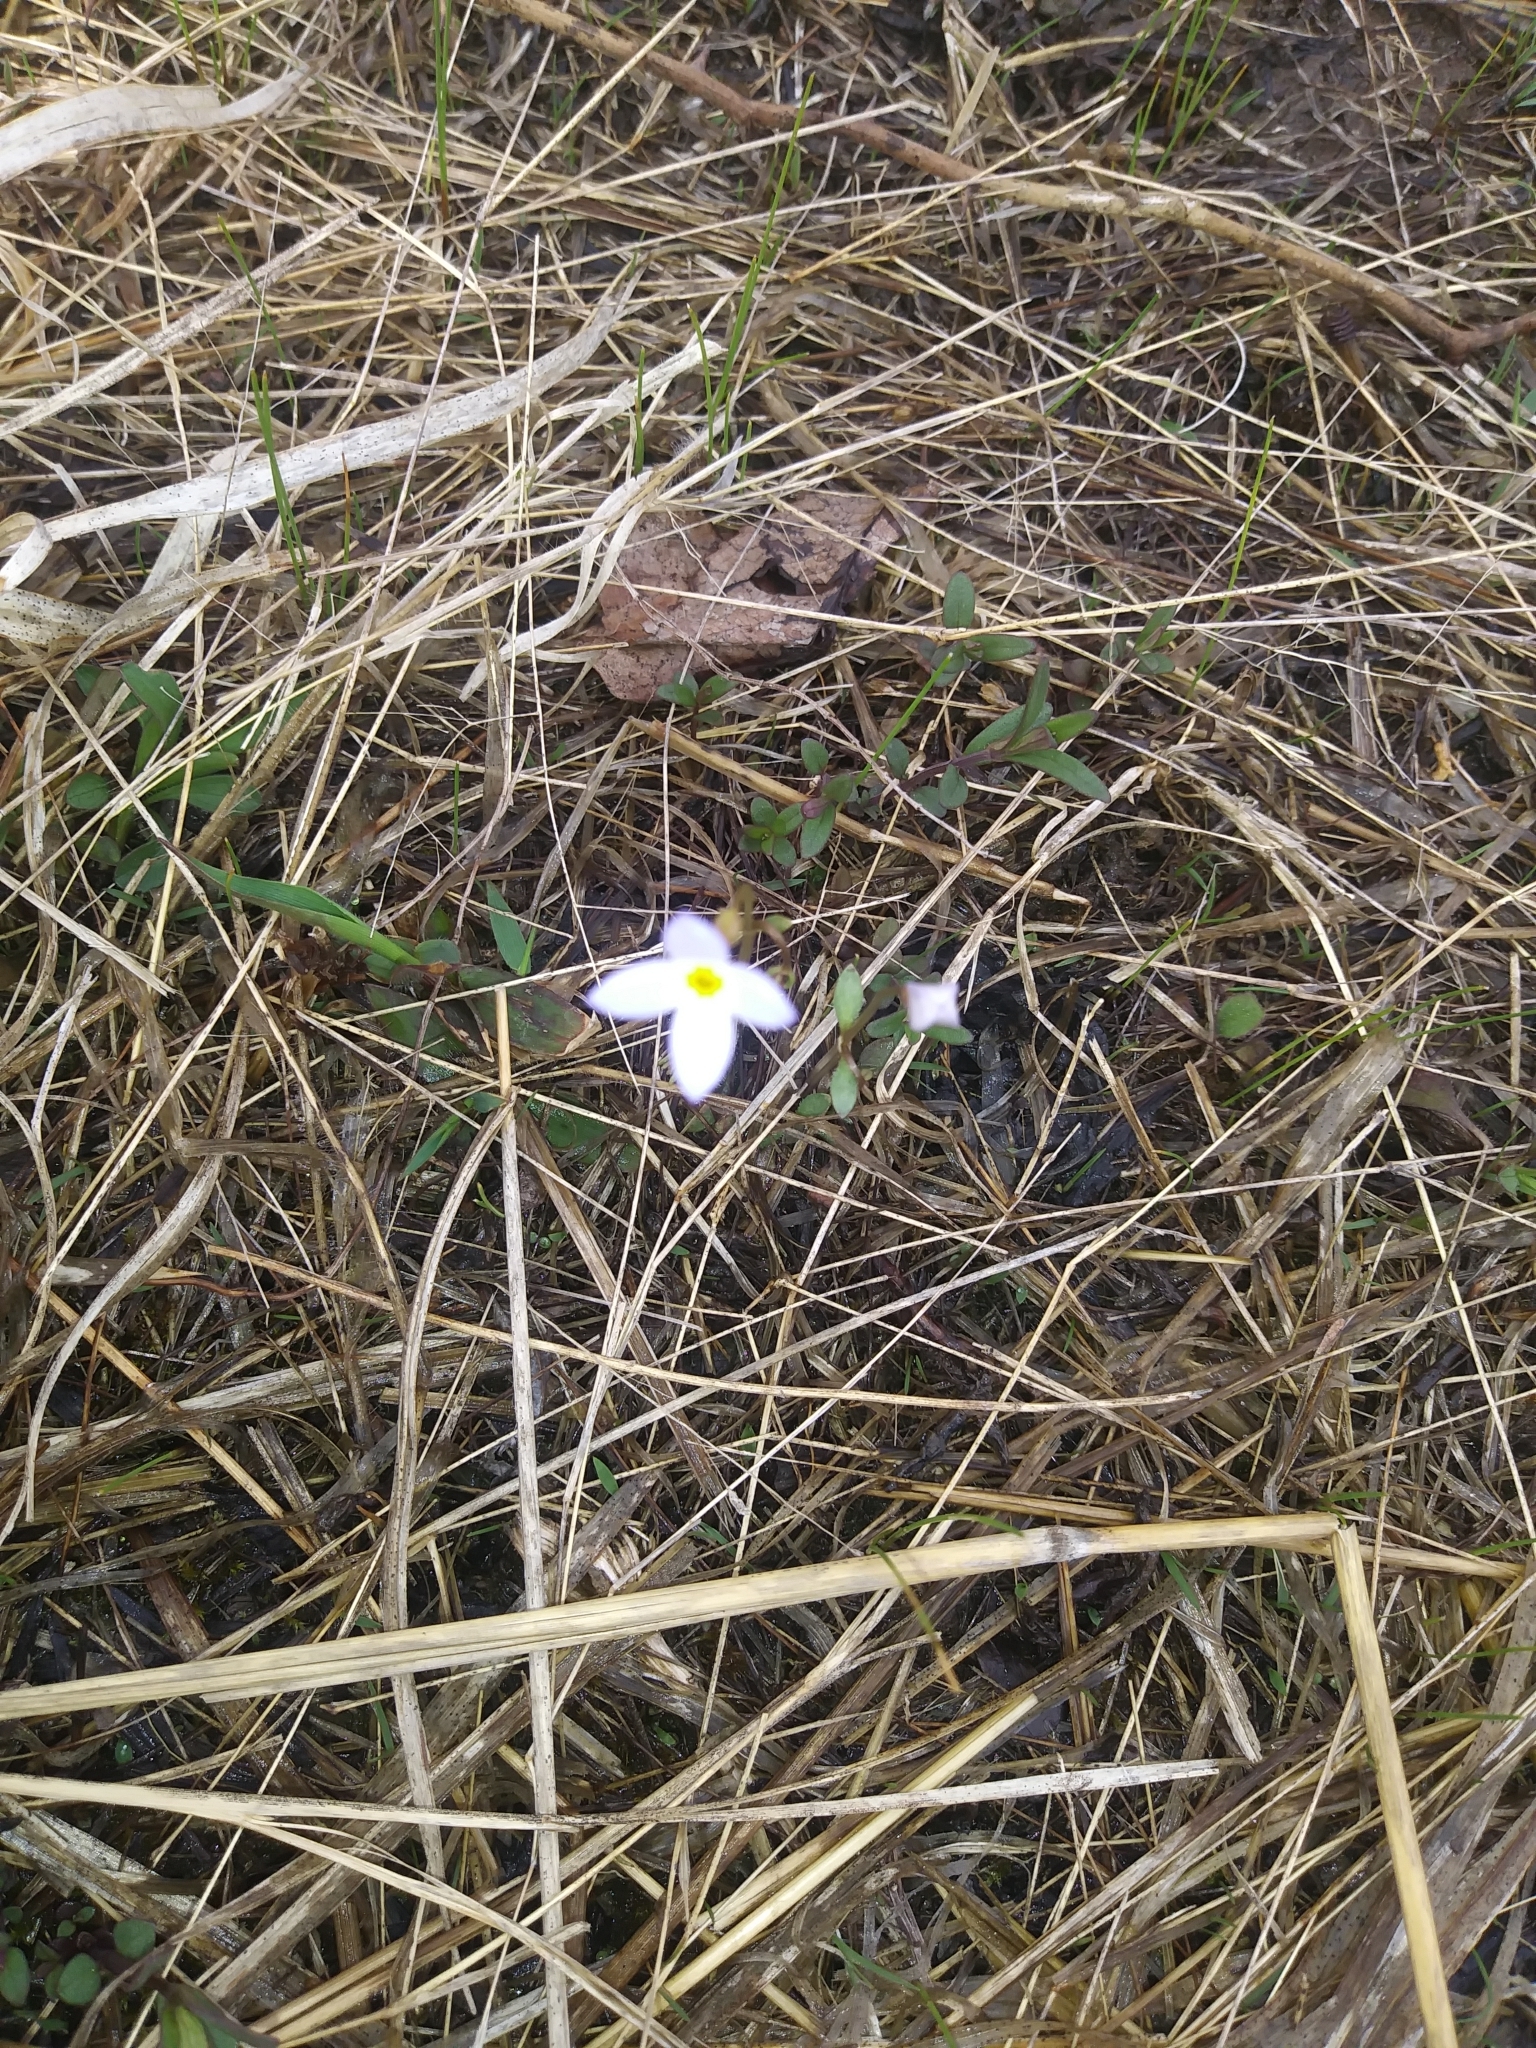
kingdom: Plantae
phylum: Tracheophyta
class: Magnoliopsida
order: Gentianales
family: Rubiaceae
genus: Houstonia
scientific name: Houstonia caerulea
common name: Bluets
